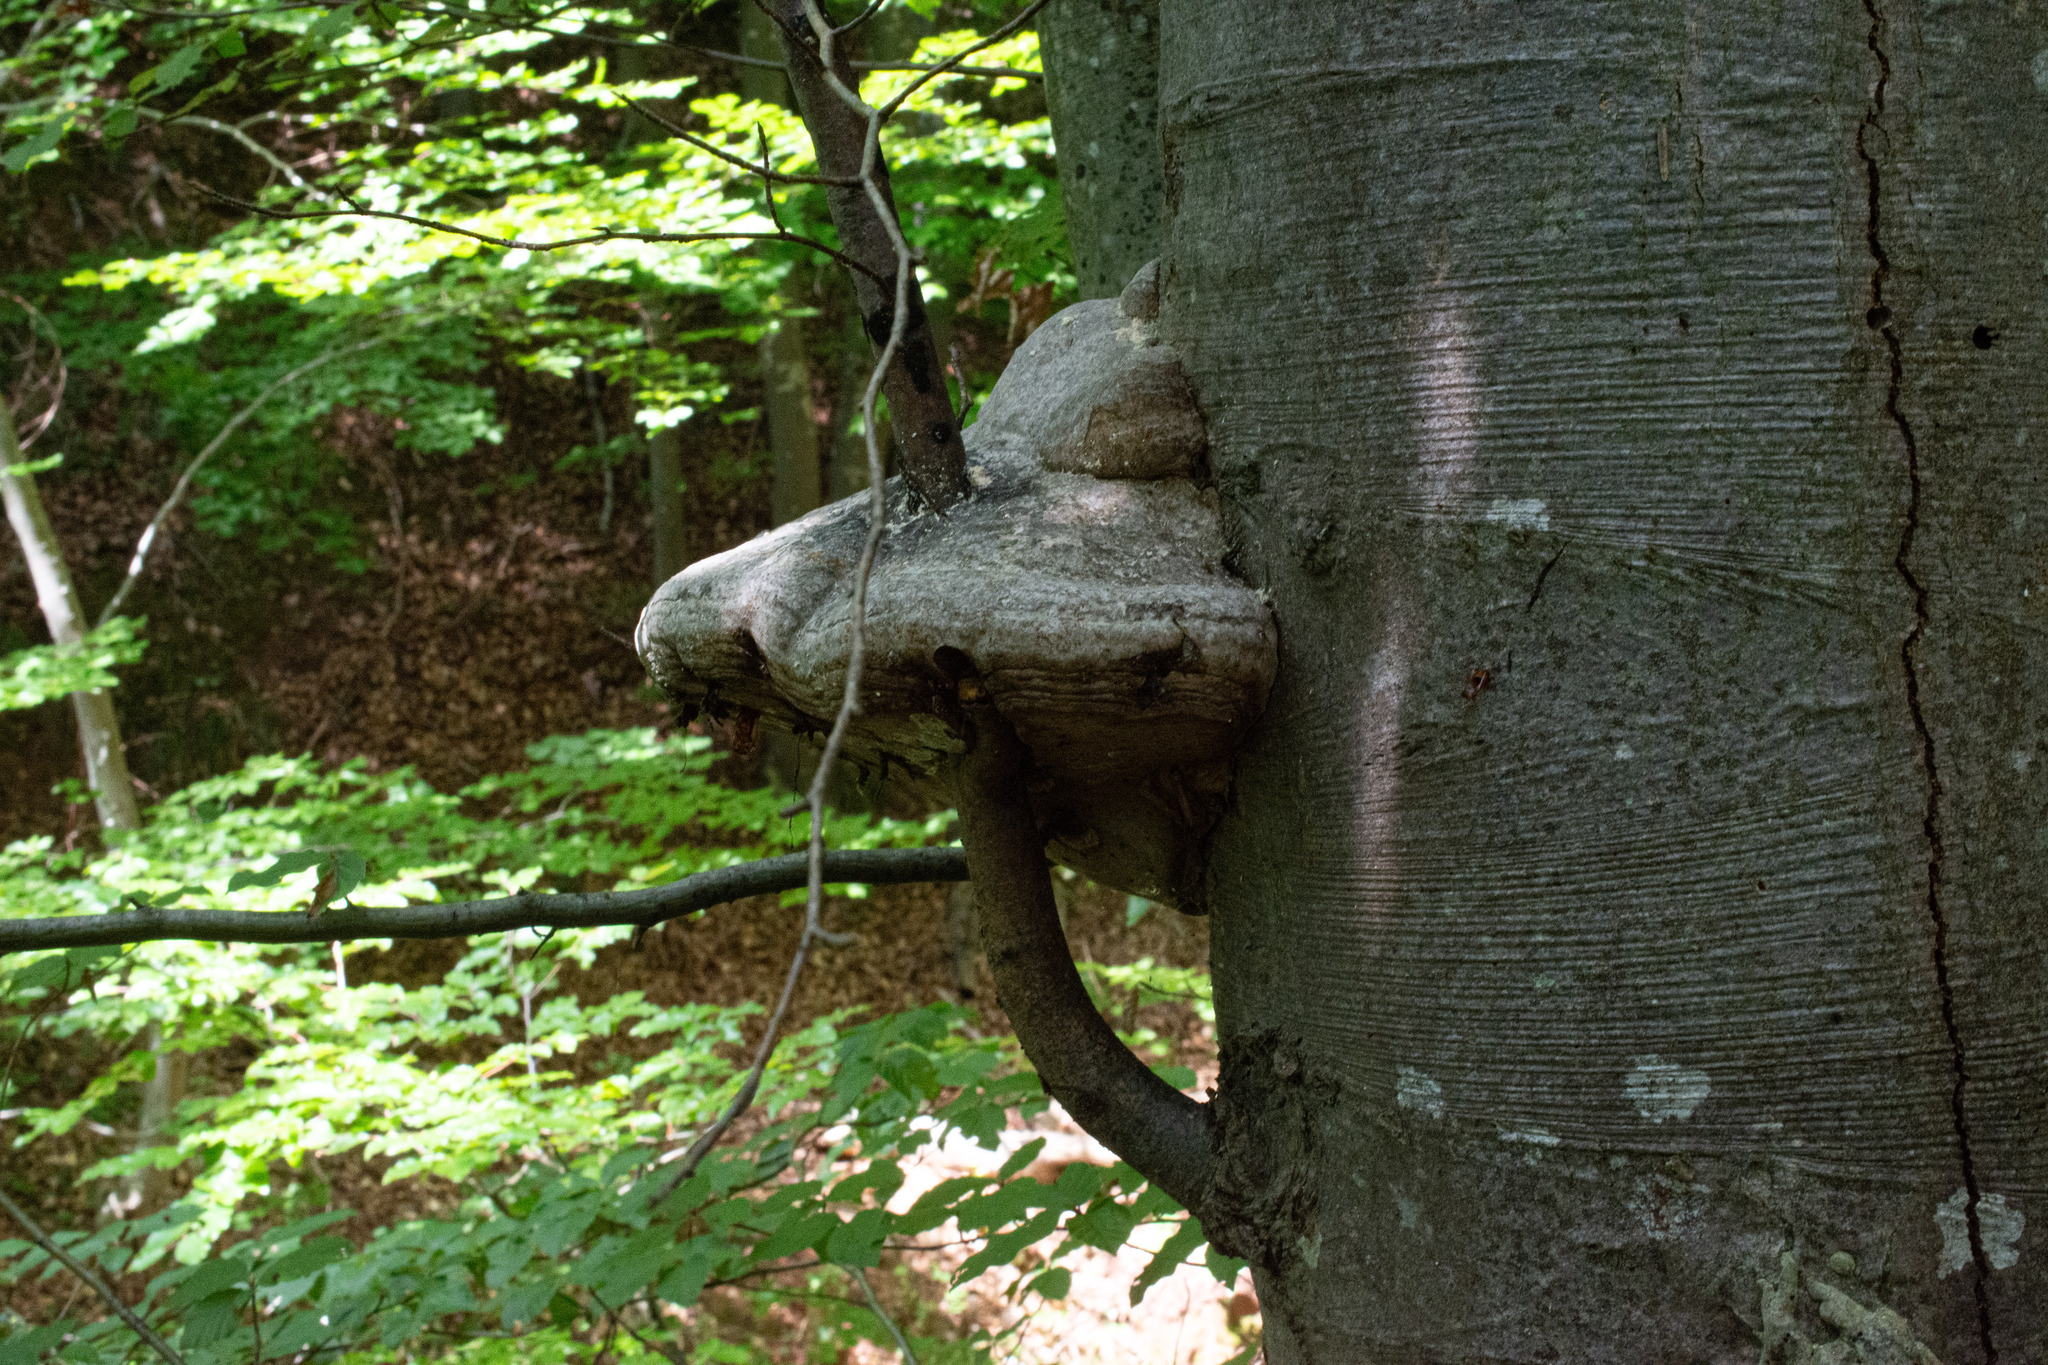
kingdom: Fungi
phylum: Basidiomycota
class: Agaricomycetes
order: Polyporales
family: Polyporaceae
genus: Fomes
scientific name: Fomes fomentarius
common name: Hoof fungus
